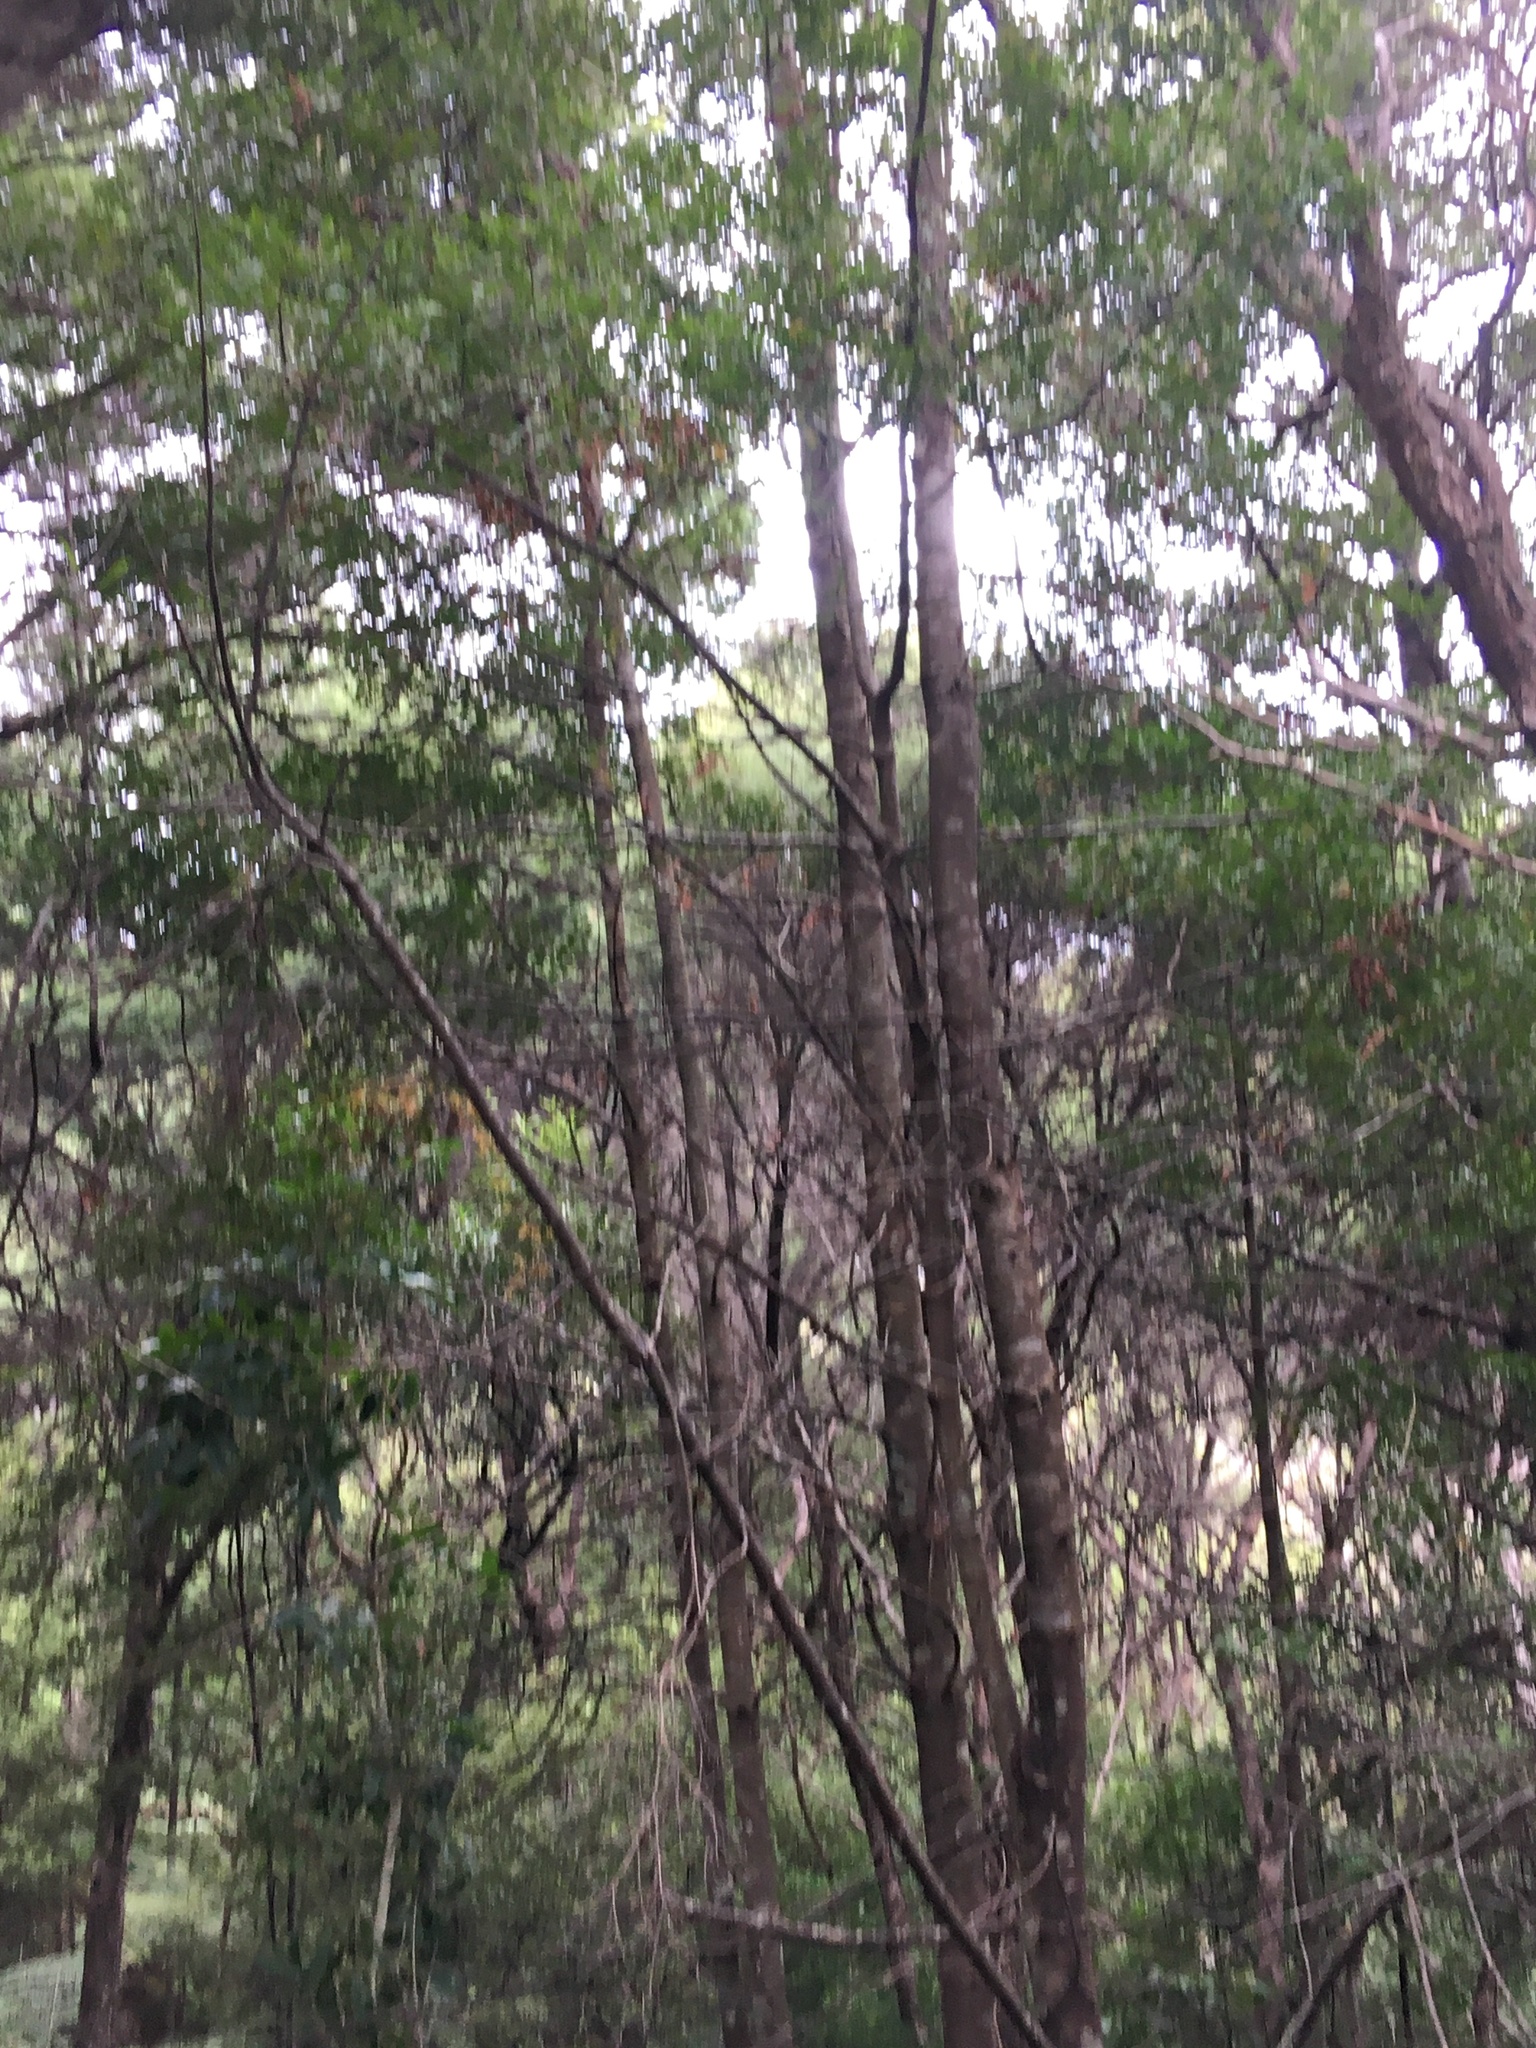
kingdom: Plantae
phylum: Tracheophyta
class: Pinopsida
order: Pinales
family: Phyllocladaceae
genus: Phyllocladus
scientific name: Phyllocladus trichomanoides
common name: Celery pine
